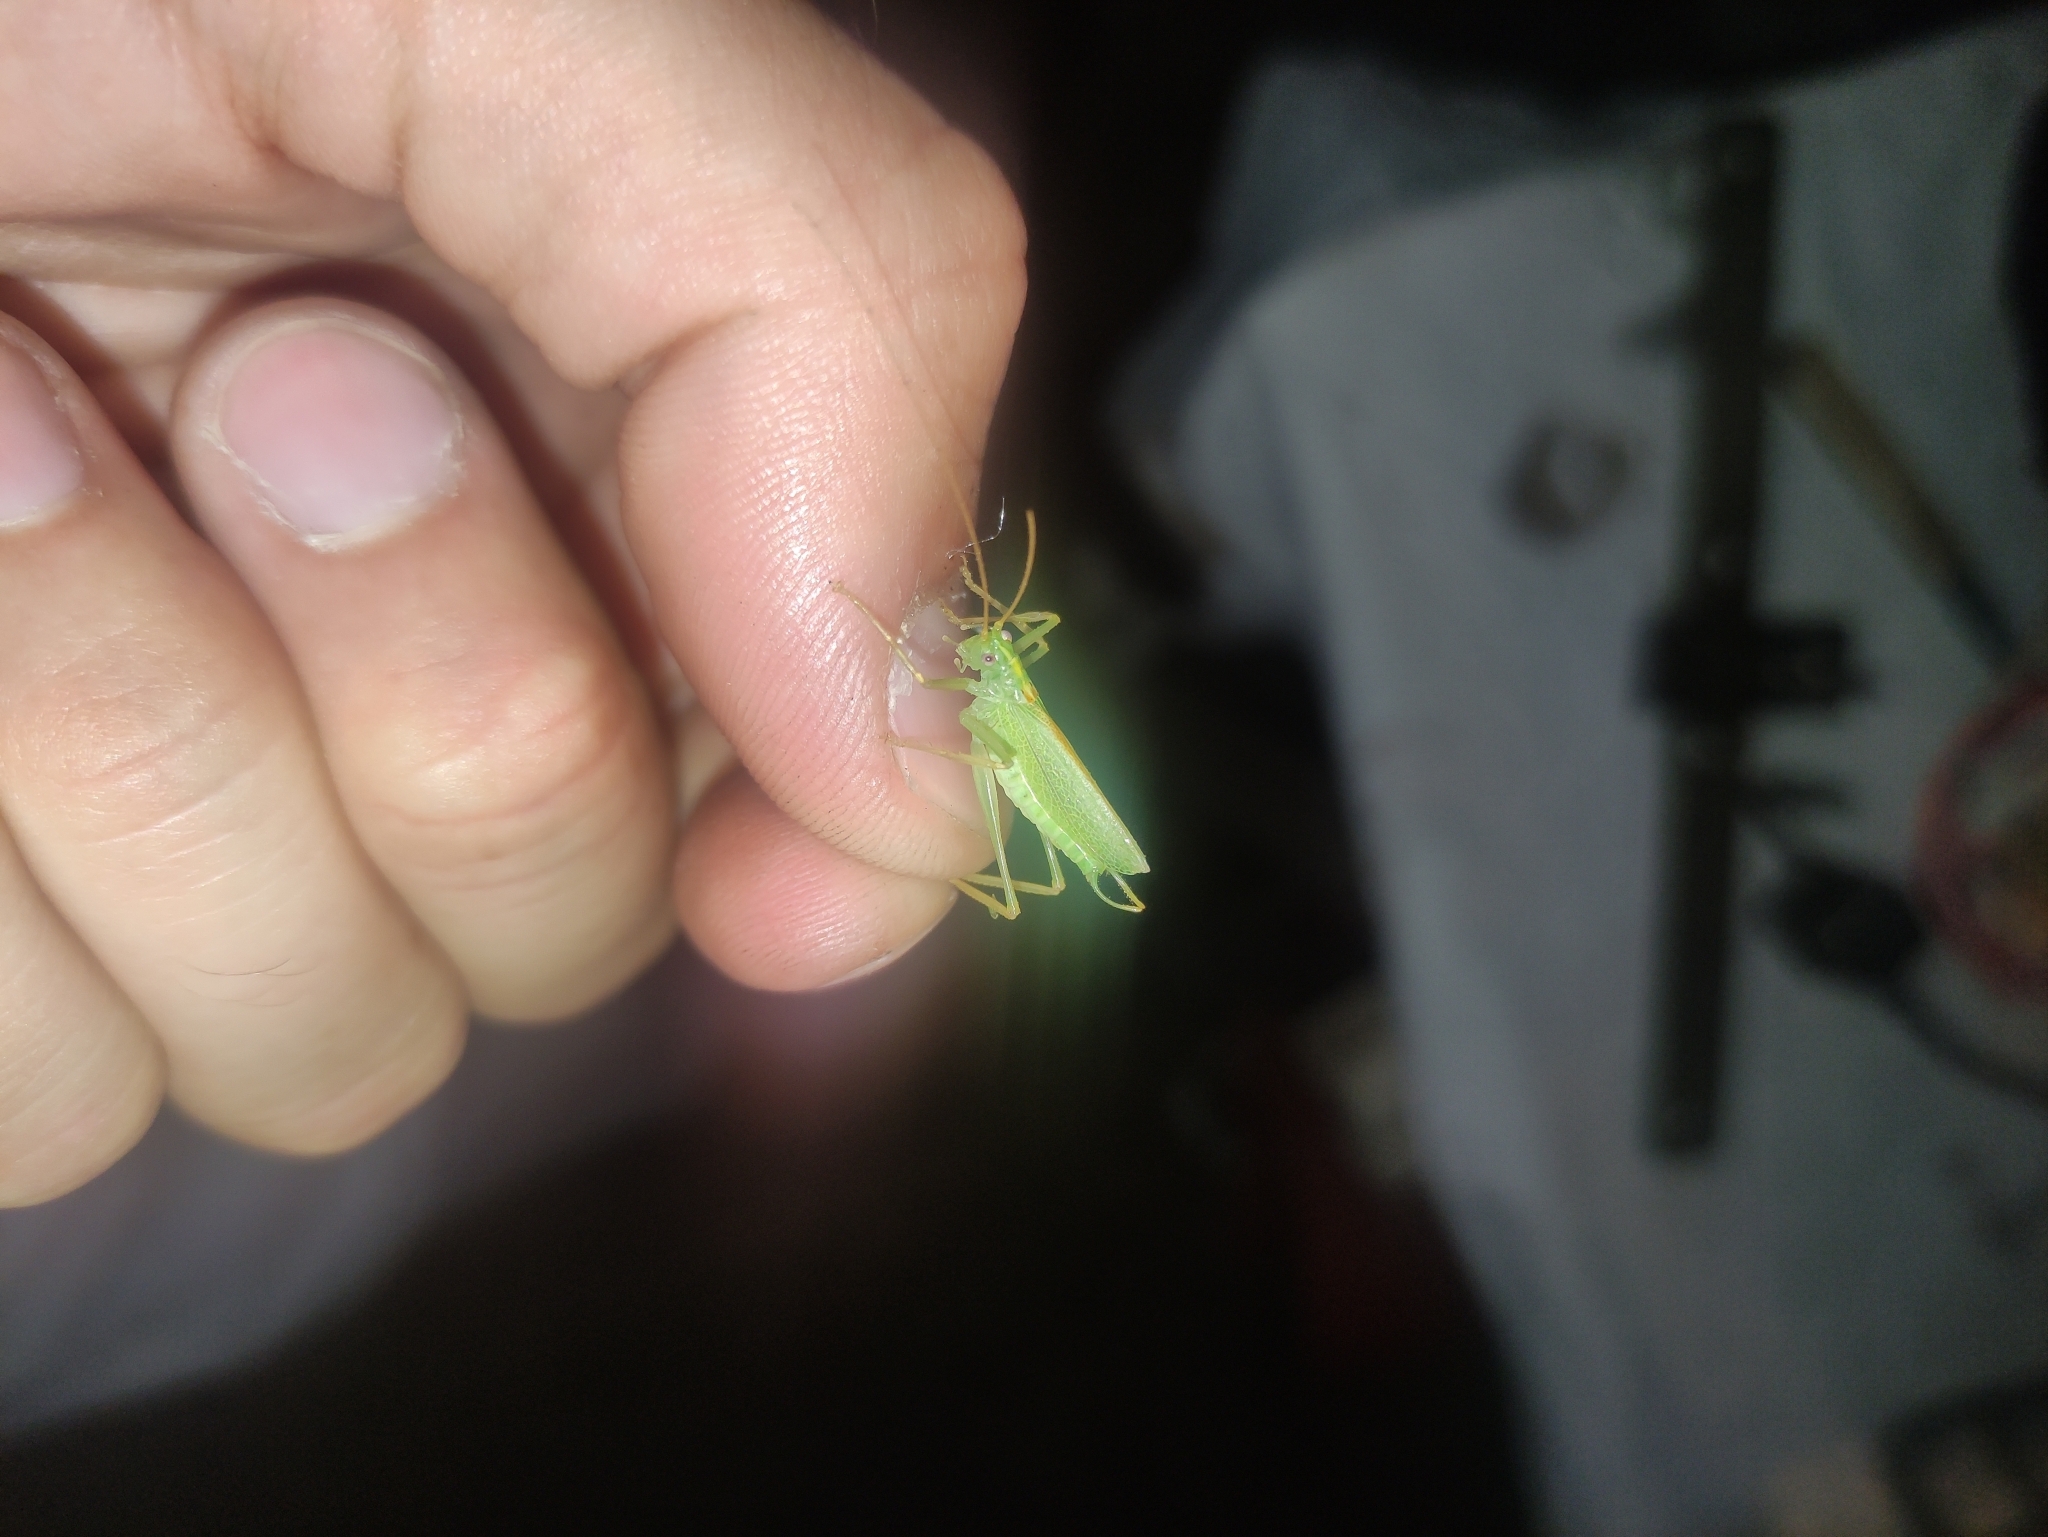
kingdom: Animalia
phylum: Arthropoda
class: Insecta
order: Orthoptera
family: Tettigoniidae
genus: Meconema
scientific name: Meconema thalassinum
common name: Oak bush-cricket
